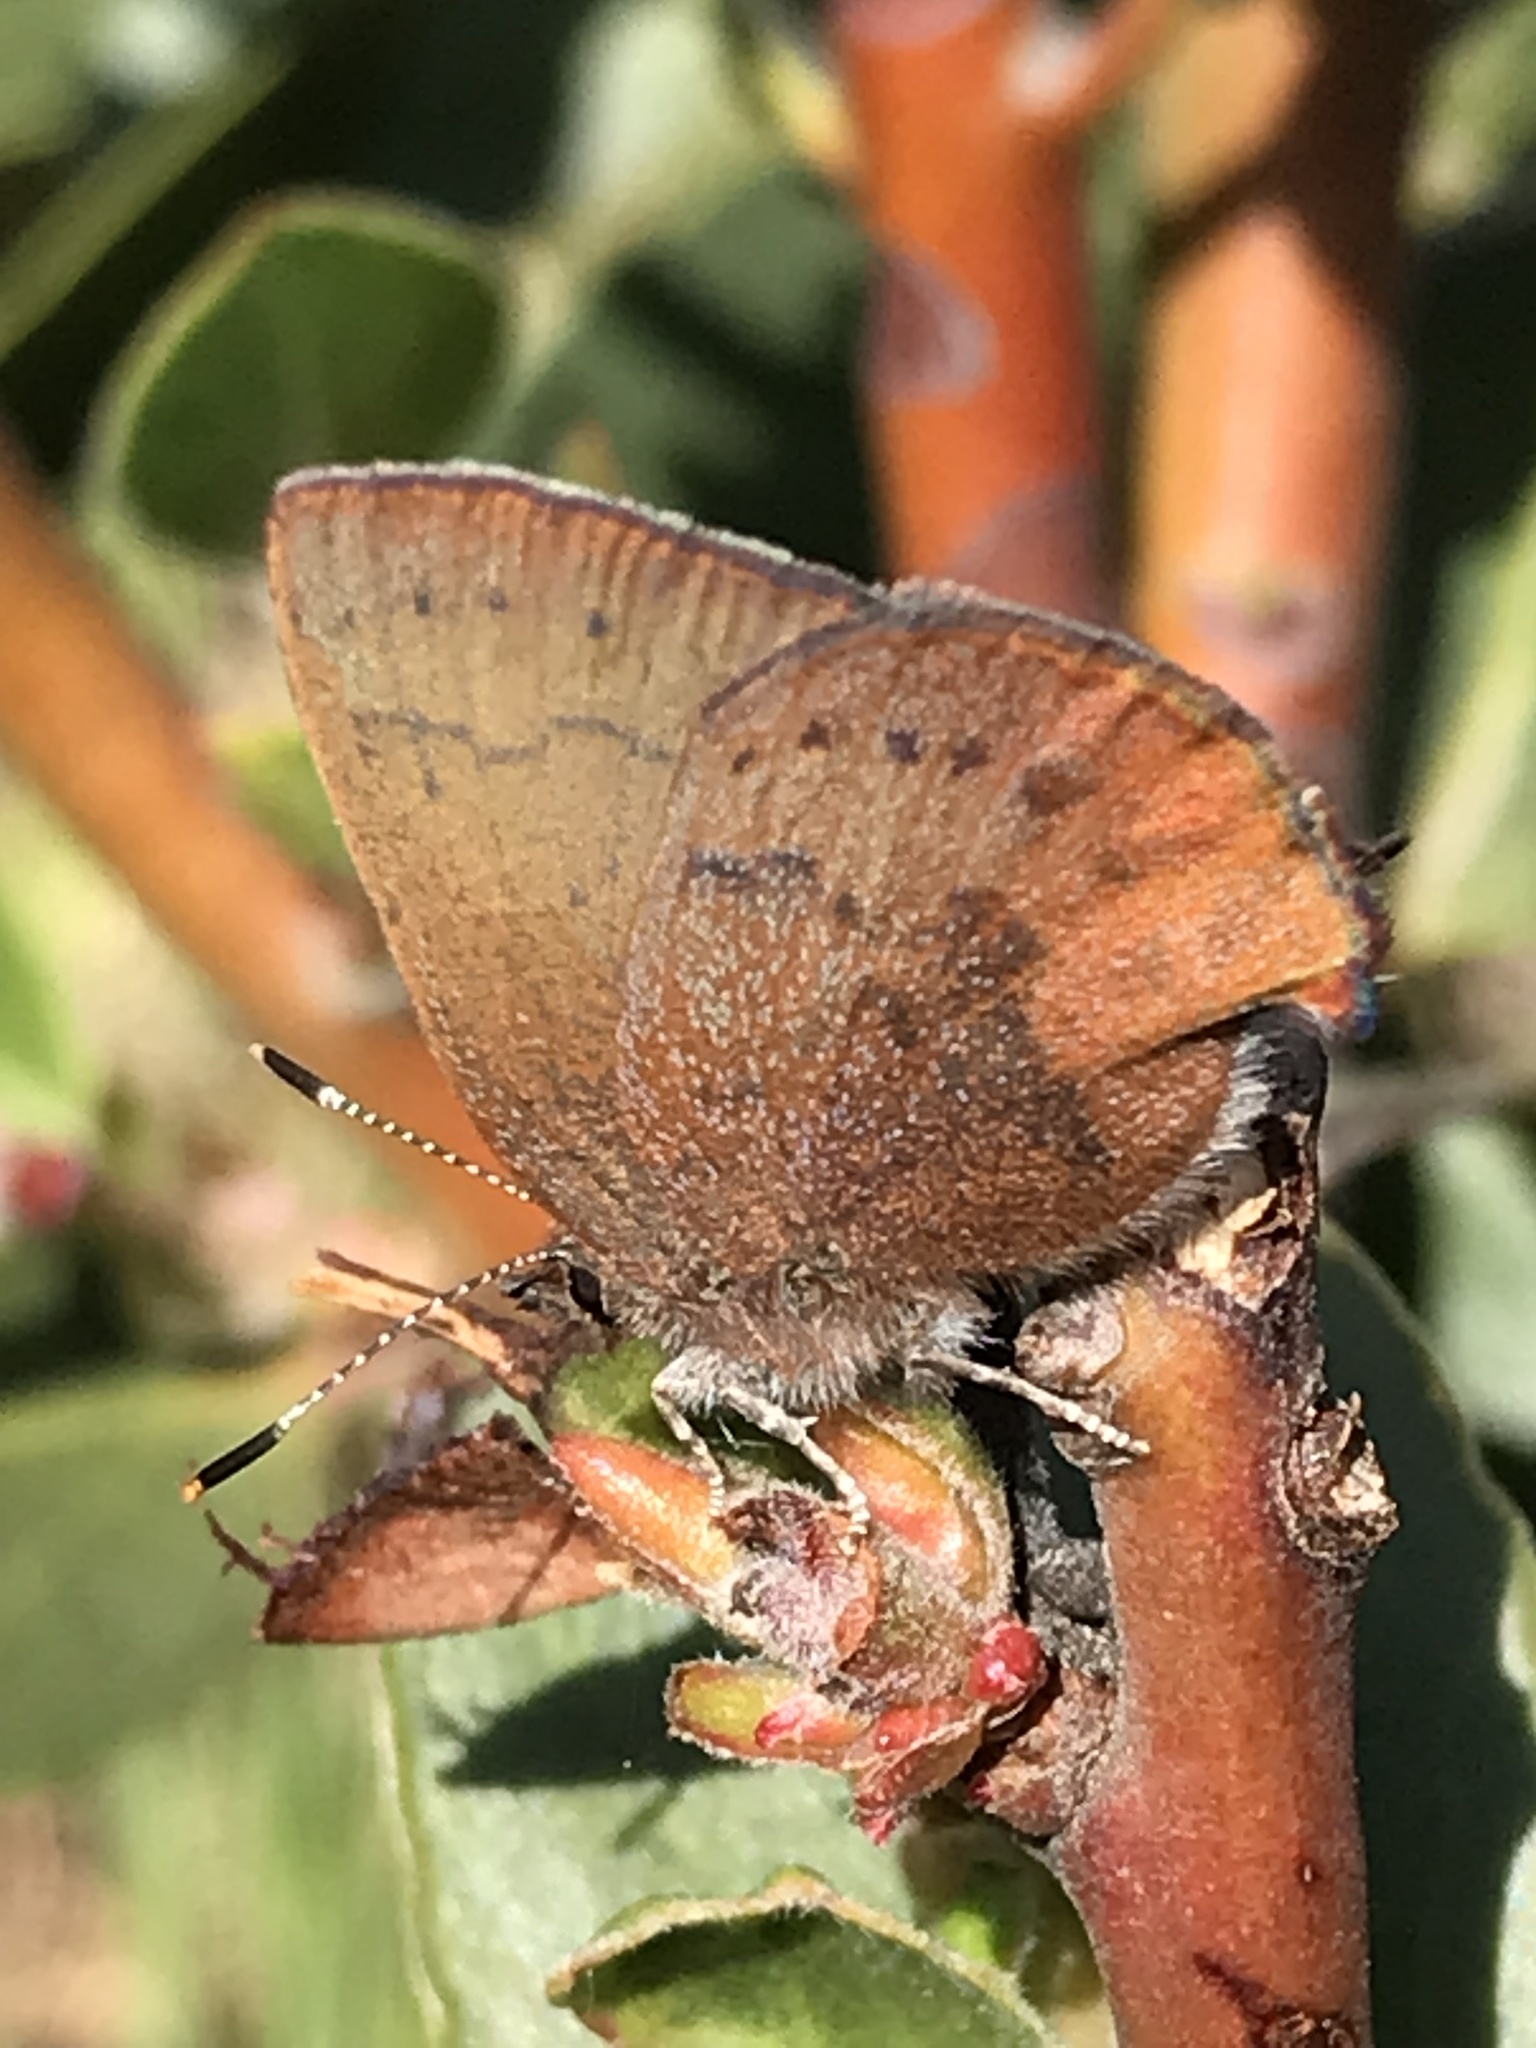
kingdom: Animalia
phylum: Arthropoda
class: Insecta
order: Lepidoptera
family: Lycaenidae
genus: Incisalia
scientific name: Incisalia irioides
